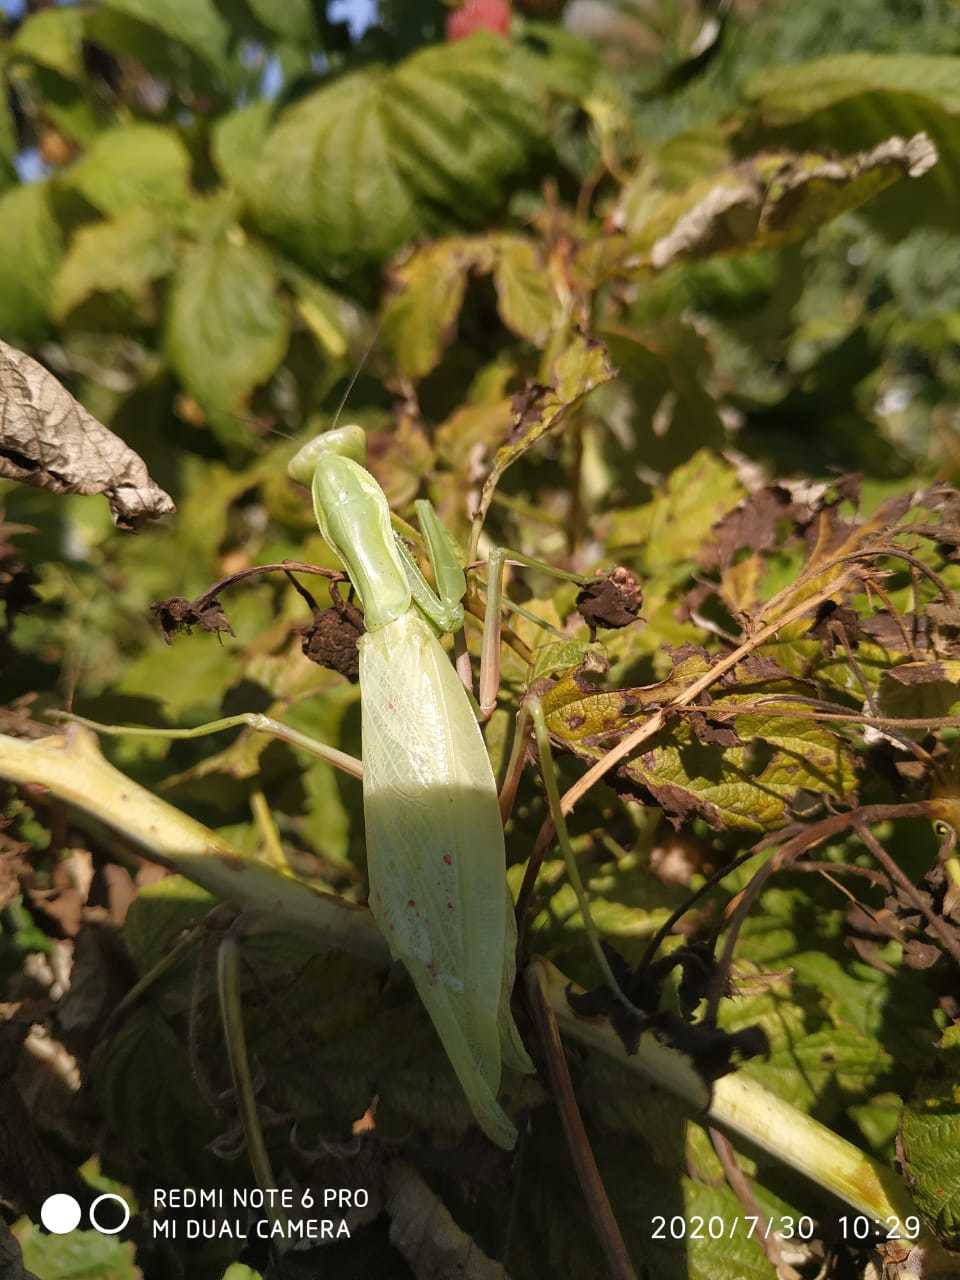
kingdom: Animalia
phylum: Arthropoda
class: Insecta
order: Mantodea
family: Mantidae
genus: Hierodula
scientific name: Hierodula transcaucasica
